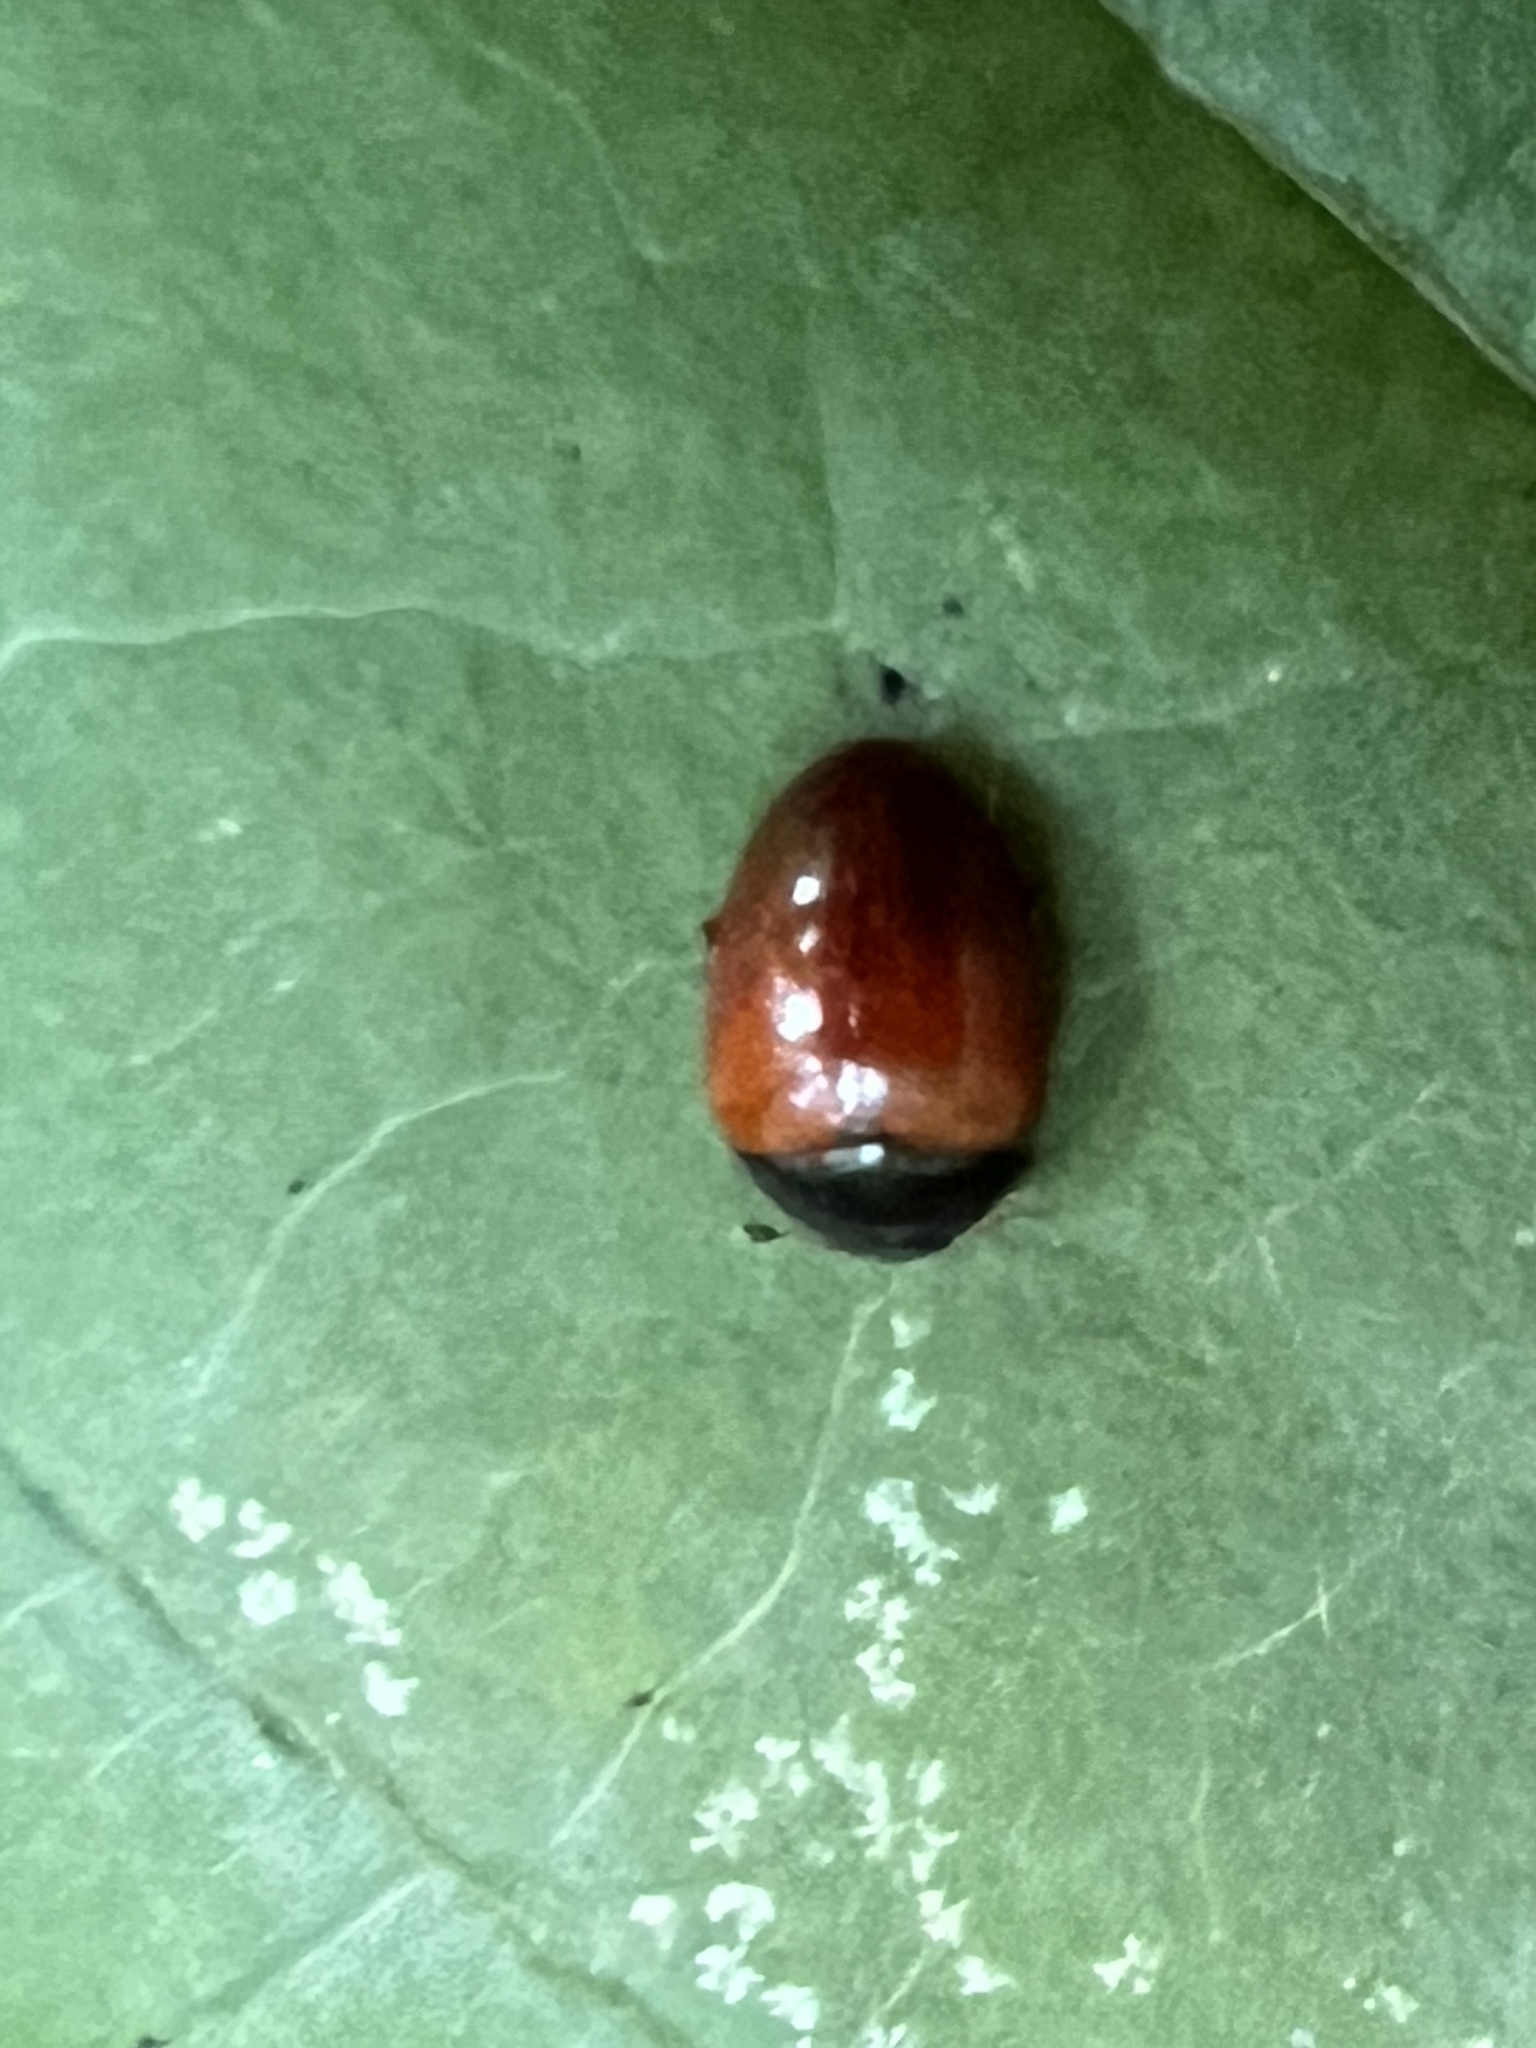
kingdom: Animalia
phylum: Arthropoda
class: Insecta
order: Coleoptera
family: Erotylidae
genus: Tritoma
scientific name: Tritoma sanguinipennis
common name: Red-winged tritoma
